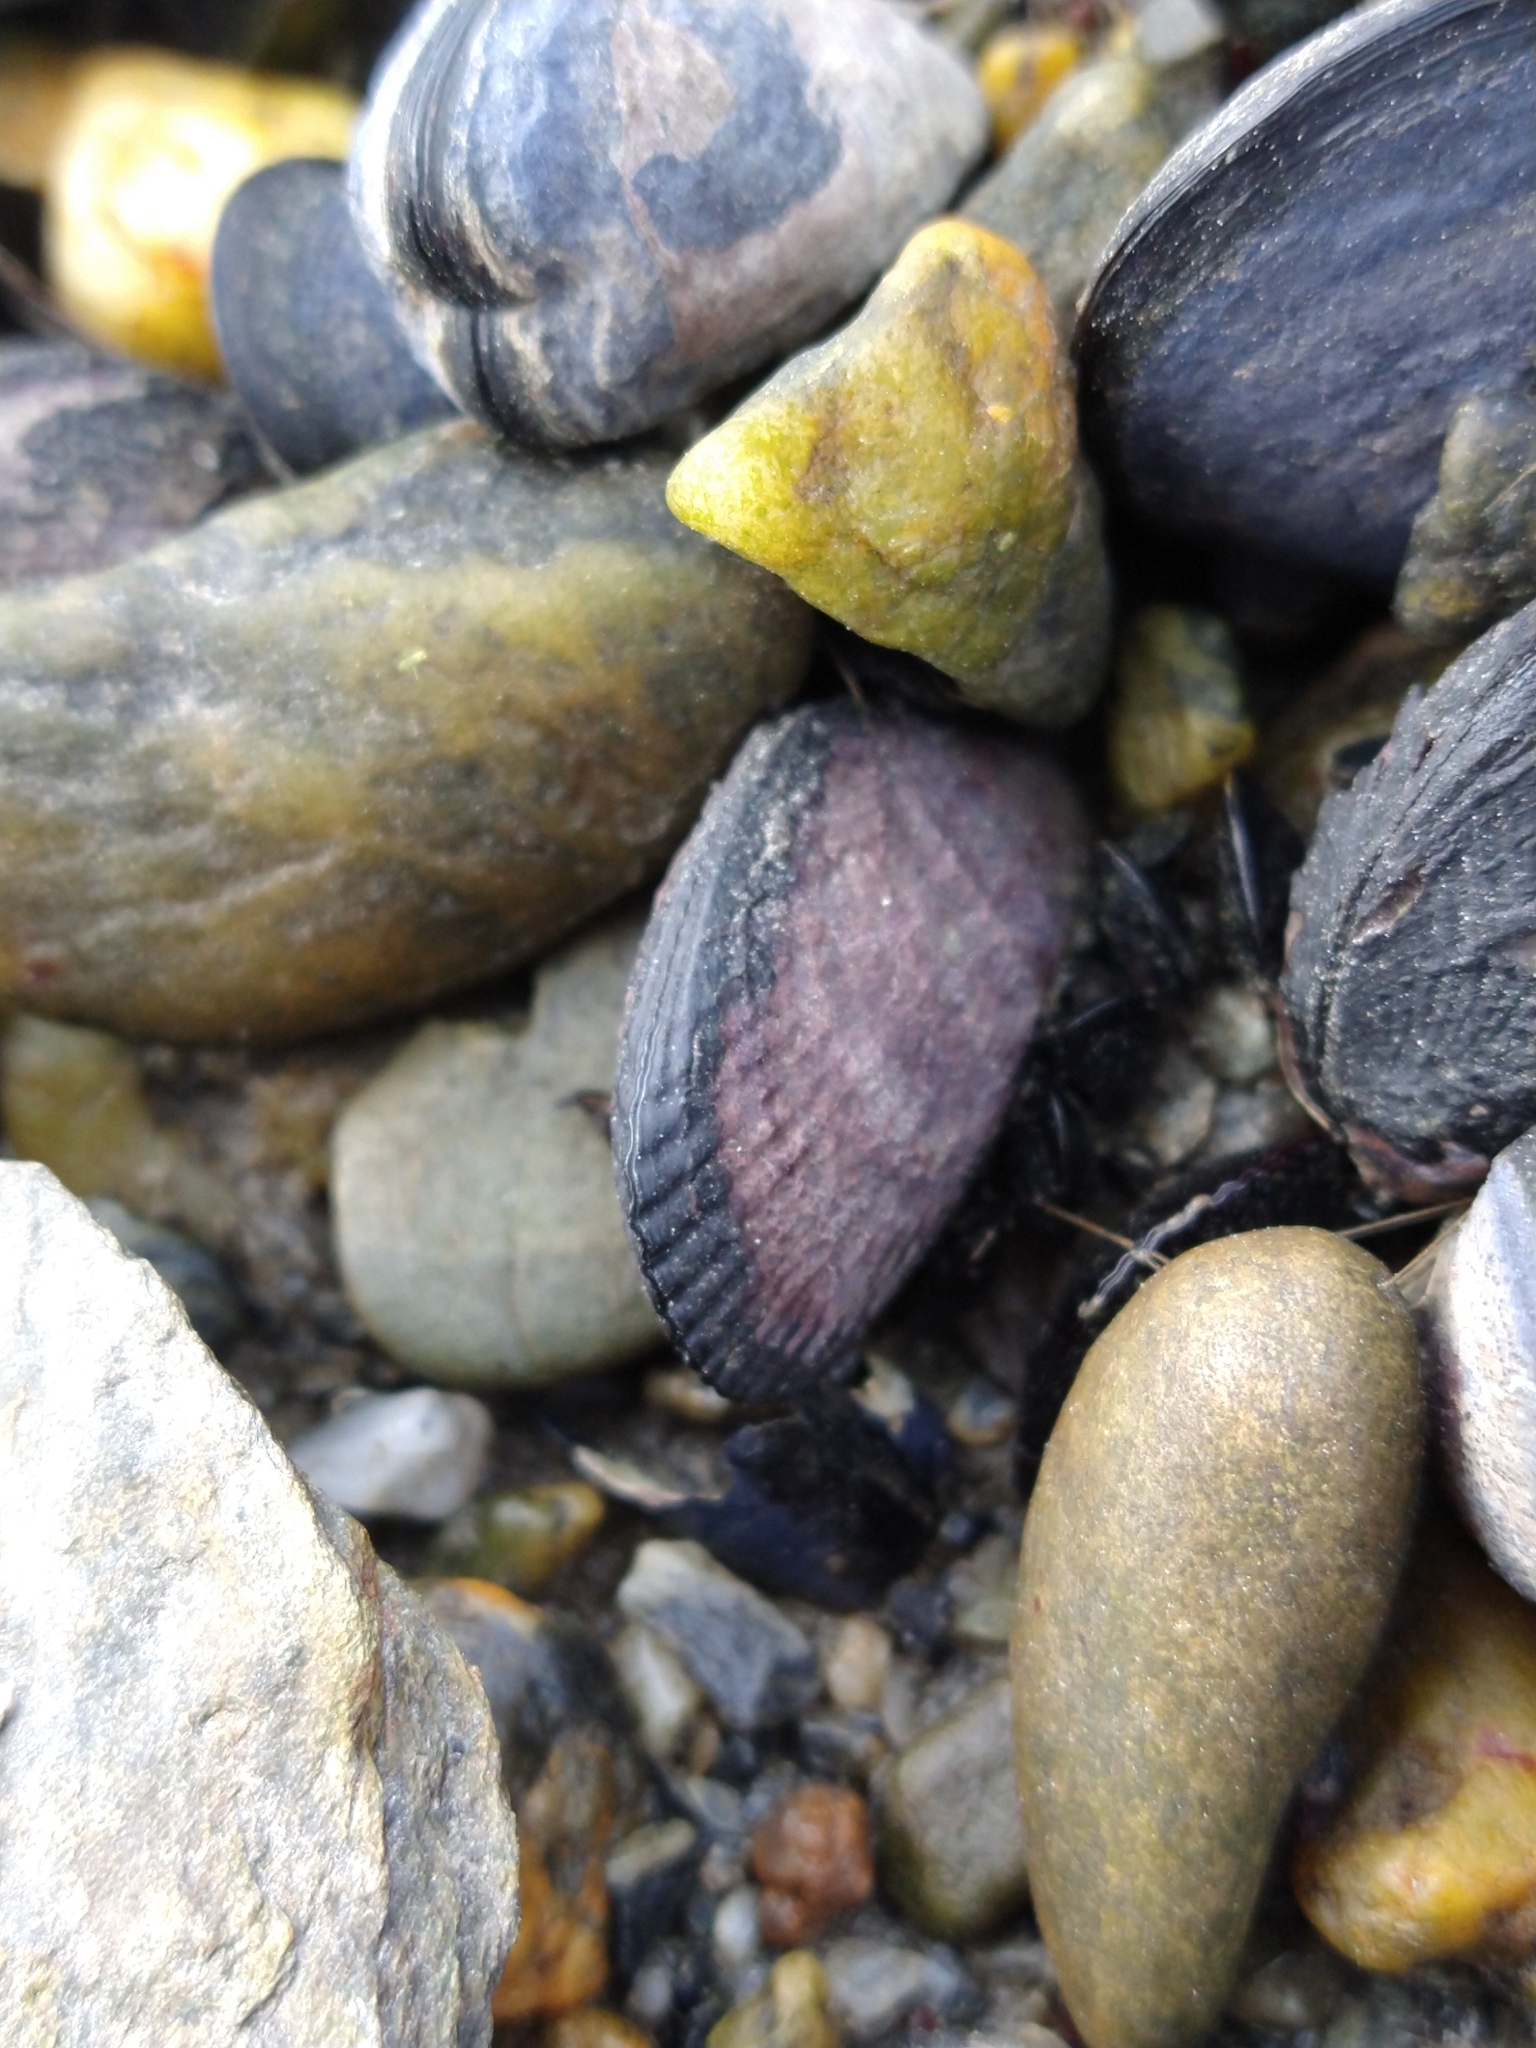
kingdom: Animalia
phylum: Mollusca
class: Bivalvia
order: Mytilida
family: Mytilidae
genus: Perumytilus
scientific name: Perumytilus purpuratus
